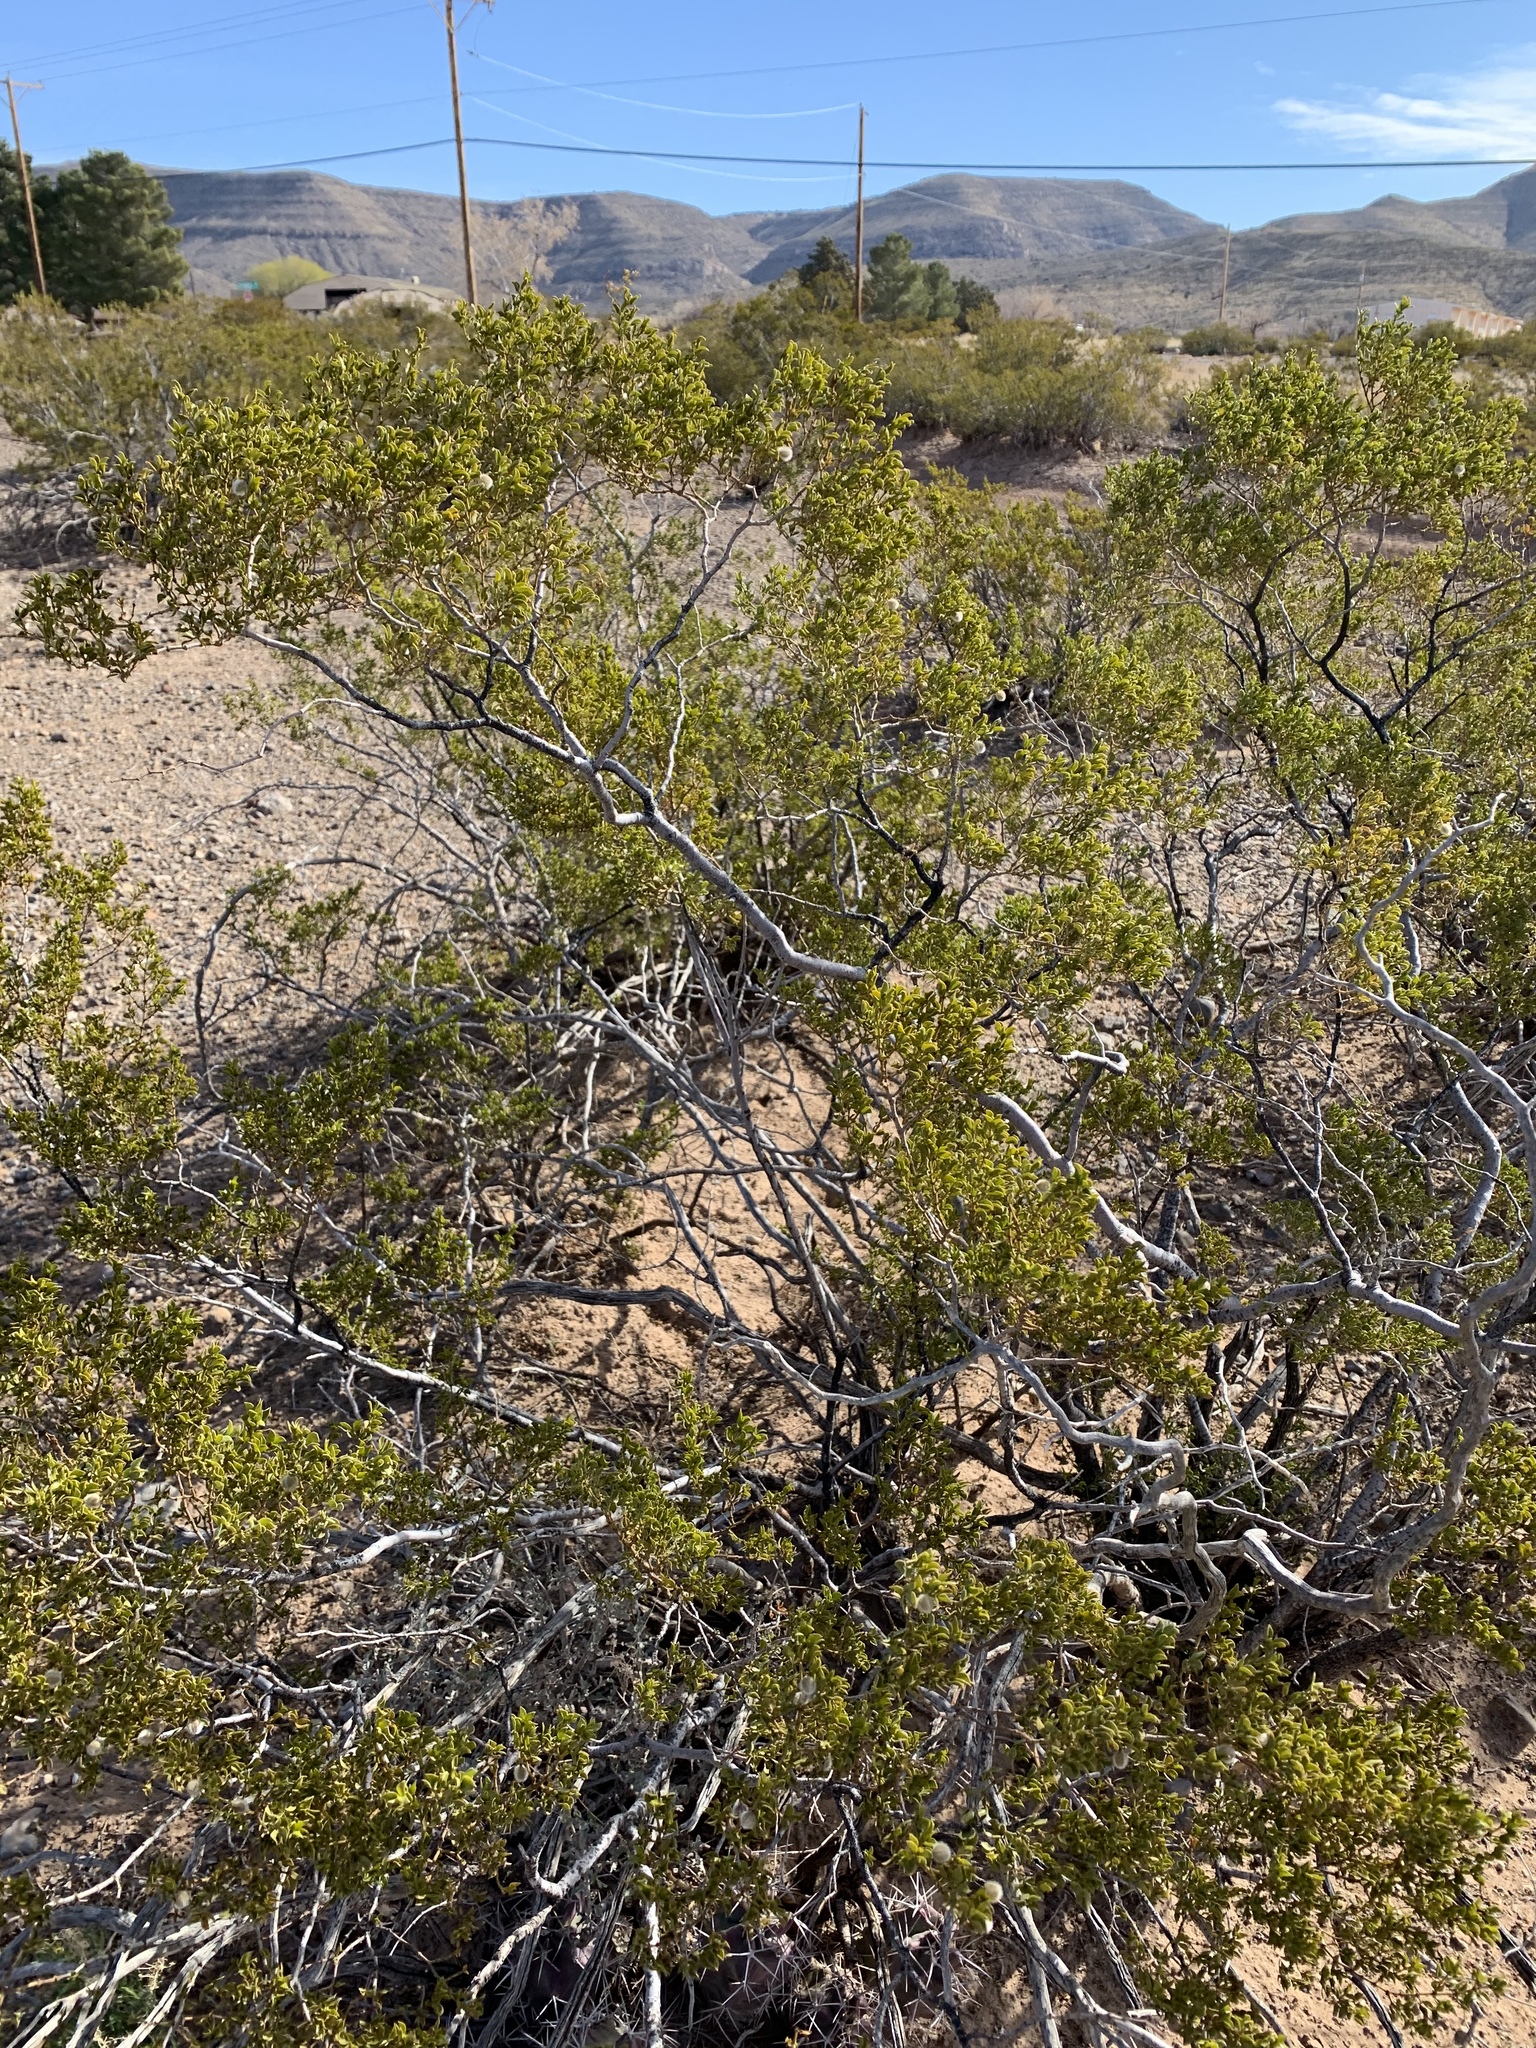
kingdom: Plantae
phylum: Tracheophyta
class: Magnoliopsida
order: Zygophyllales
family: Zygophyllaceae
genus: Larrea
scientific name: Larrea tridentata
